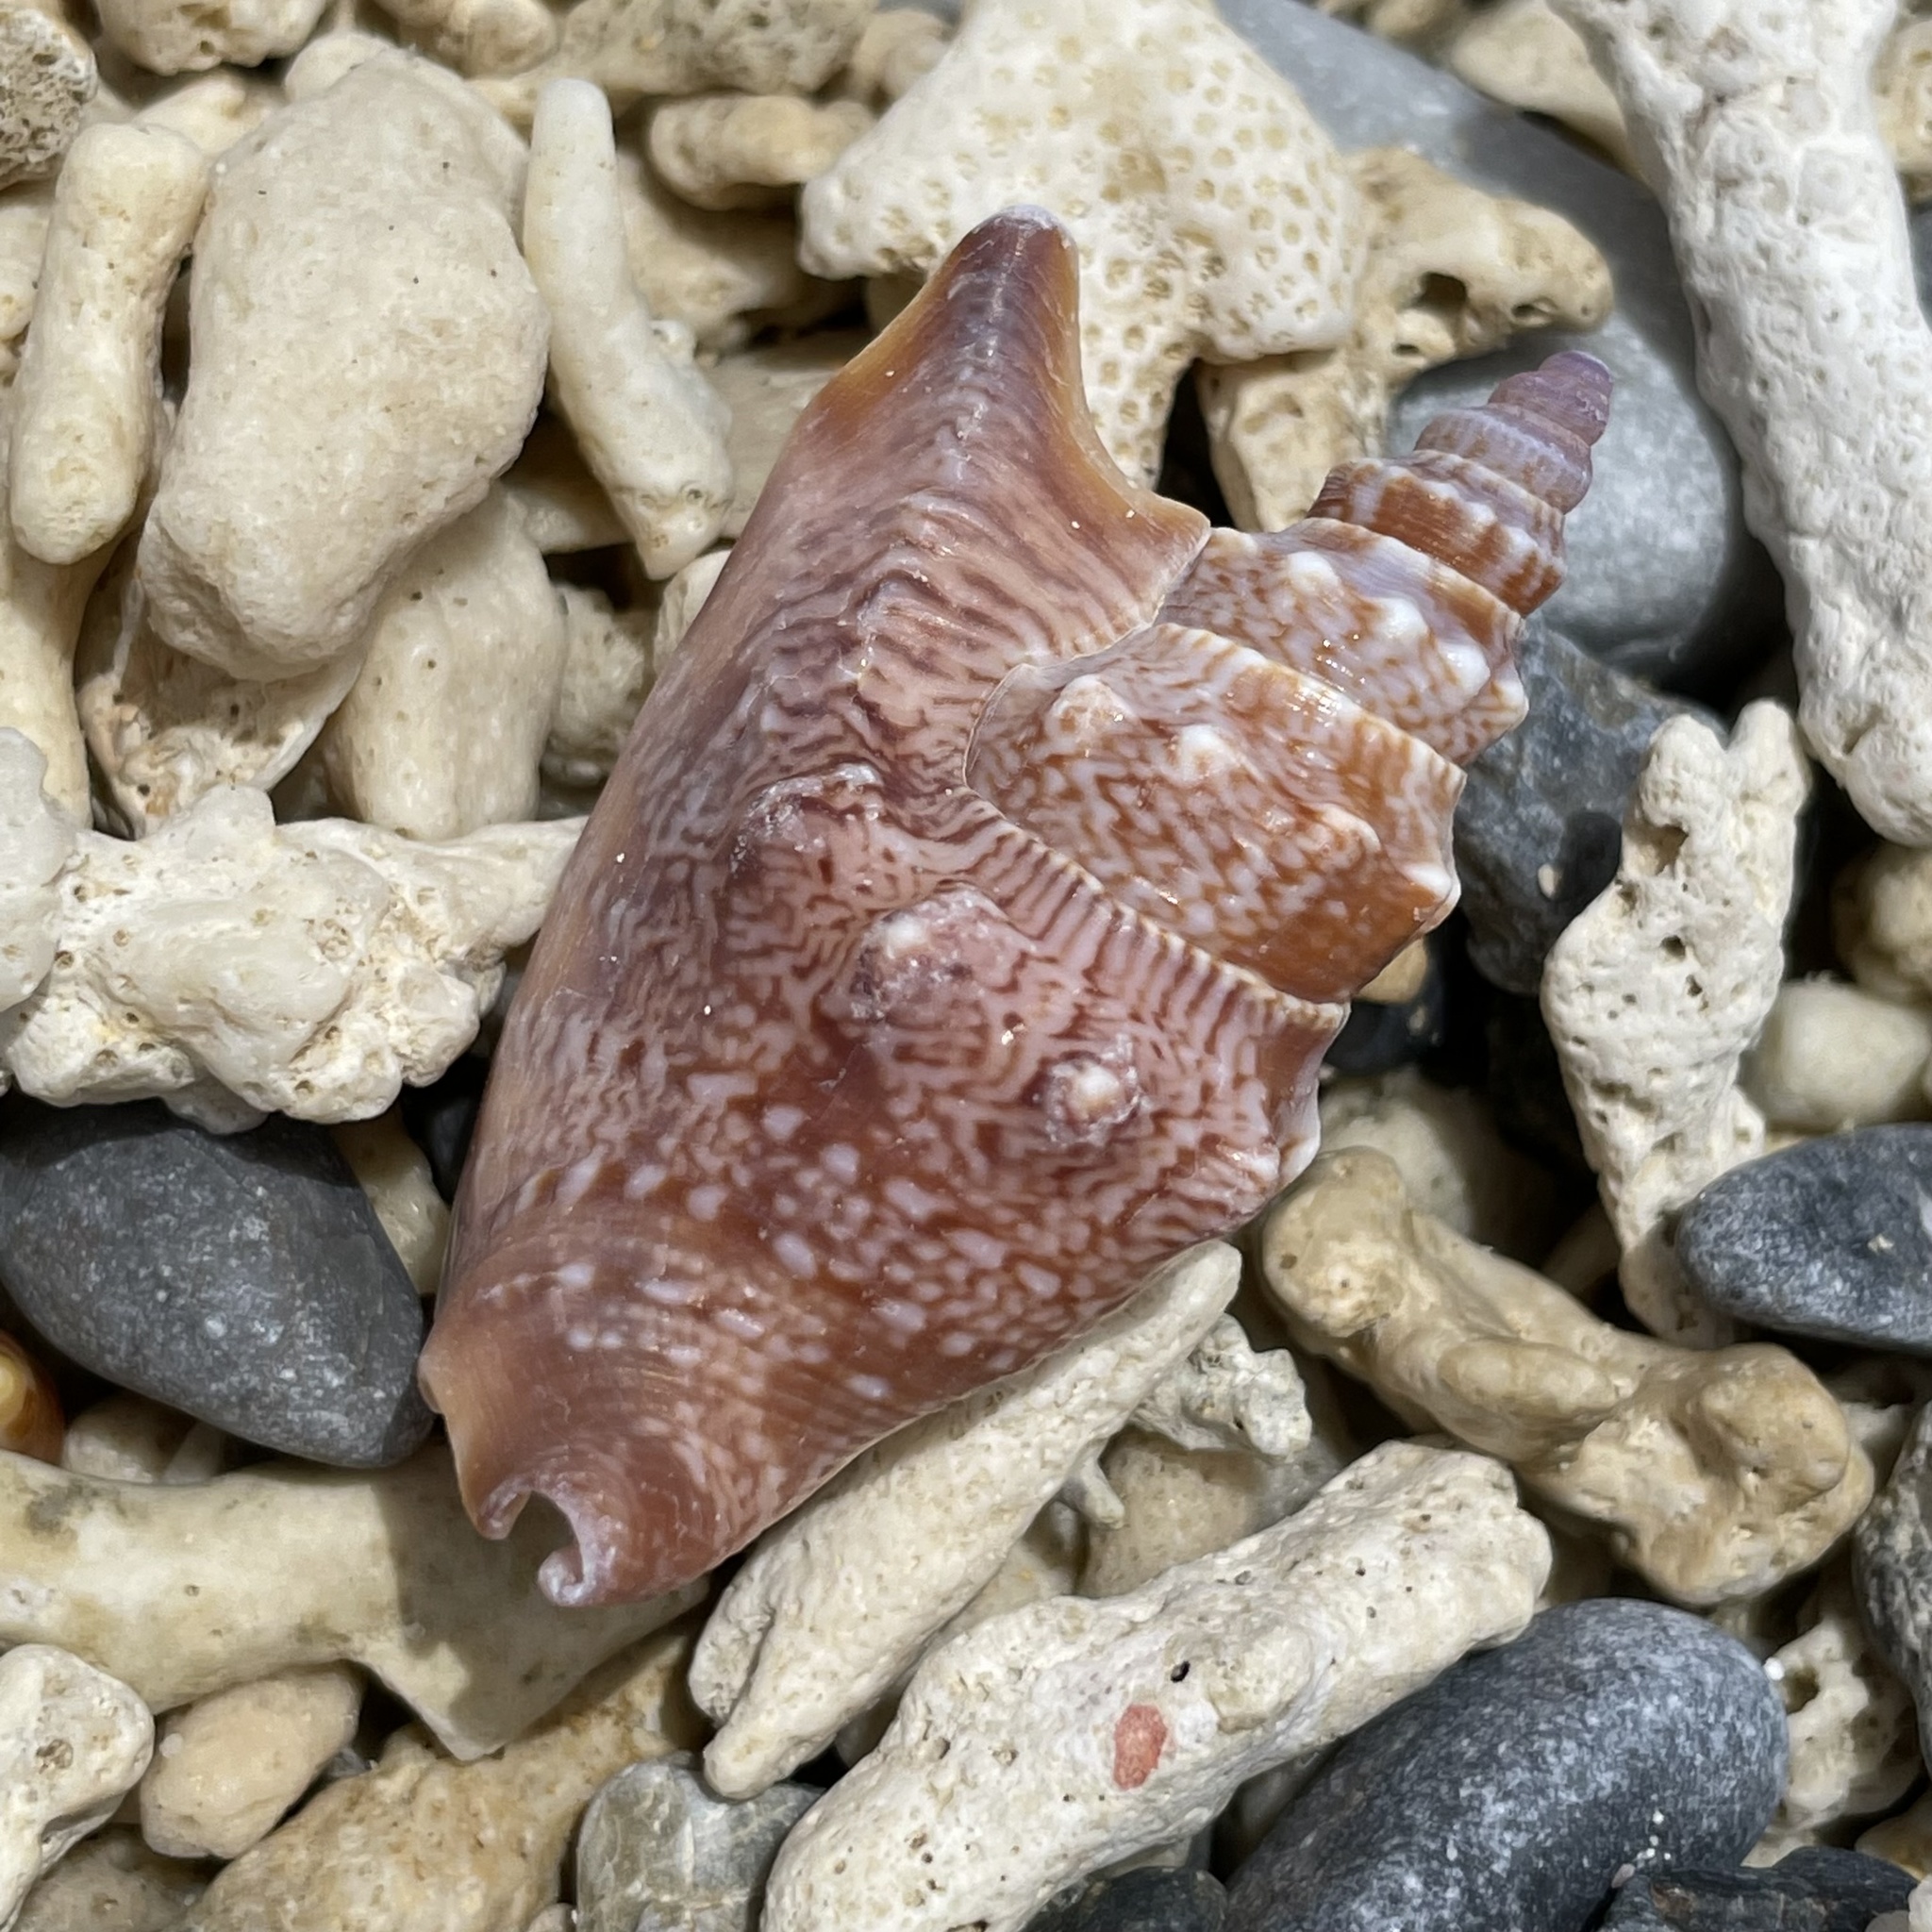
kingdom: Animalia
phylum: Mollusca
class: Gastropoda
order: Littorinimorpha
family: Strombidae
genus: Euprotomus
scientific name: Euprotomus vomer
